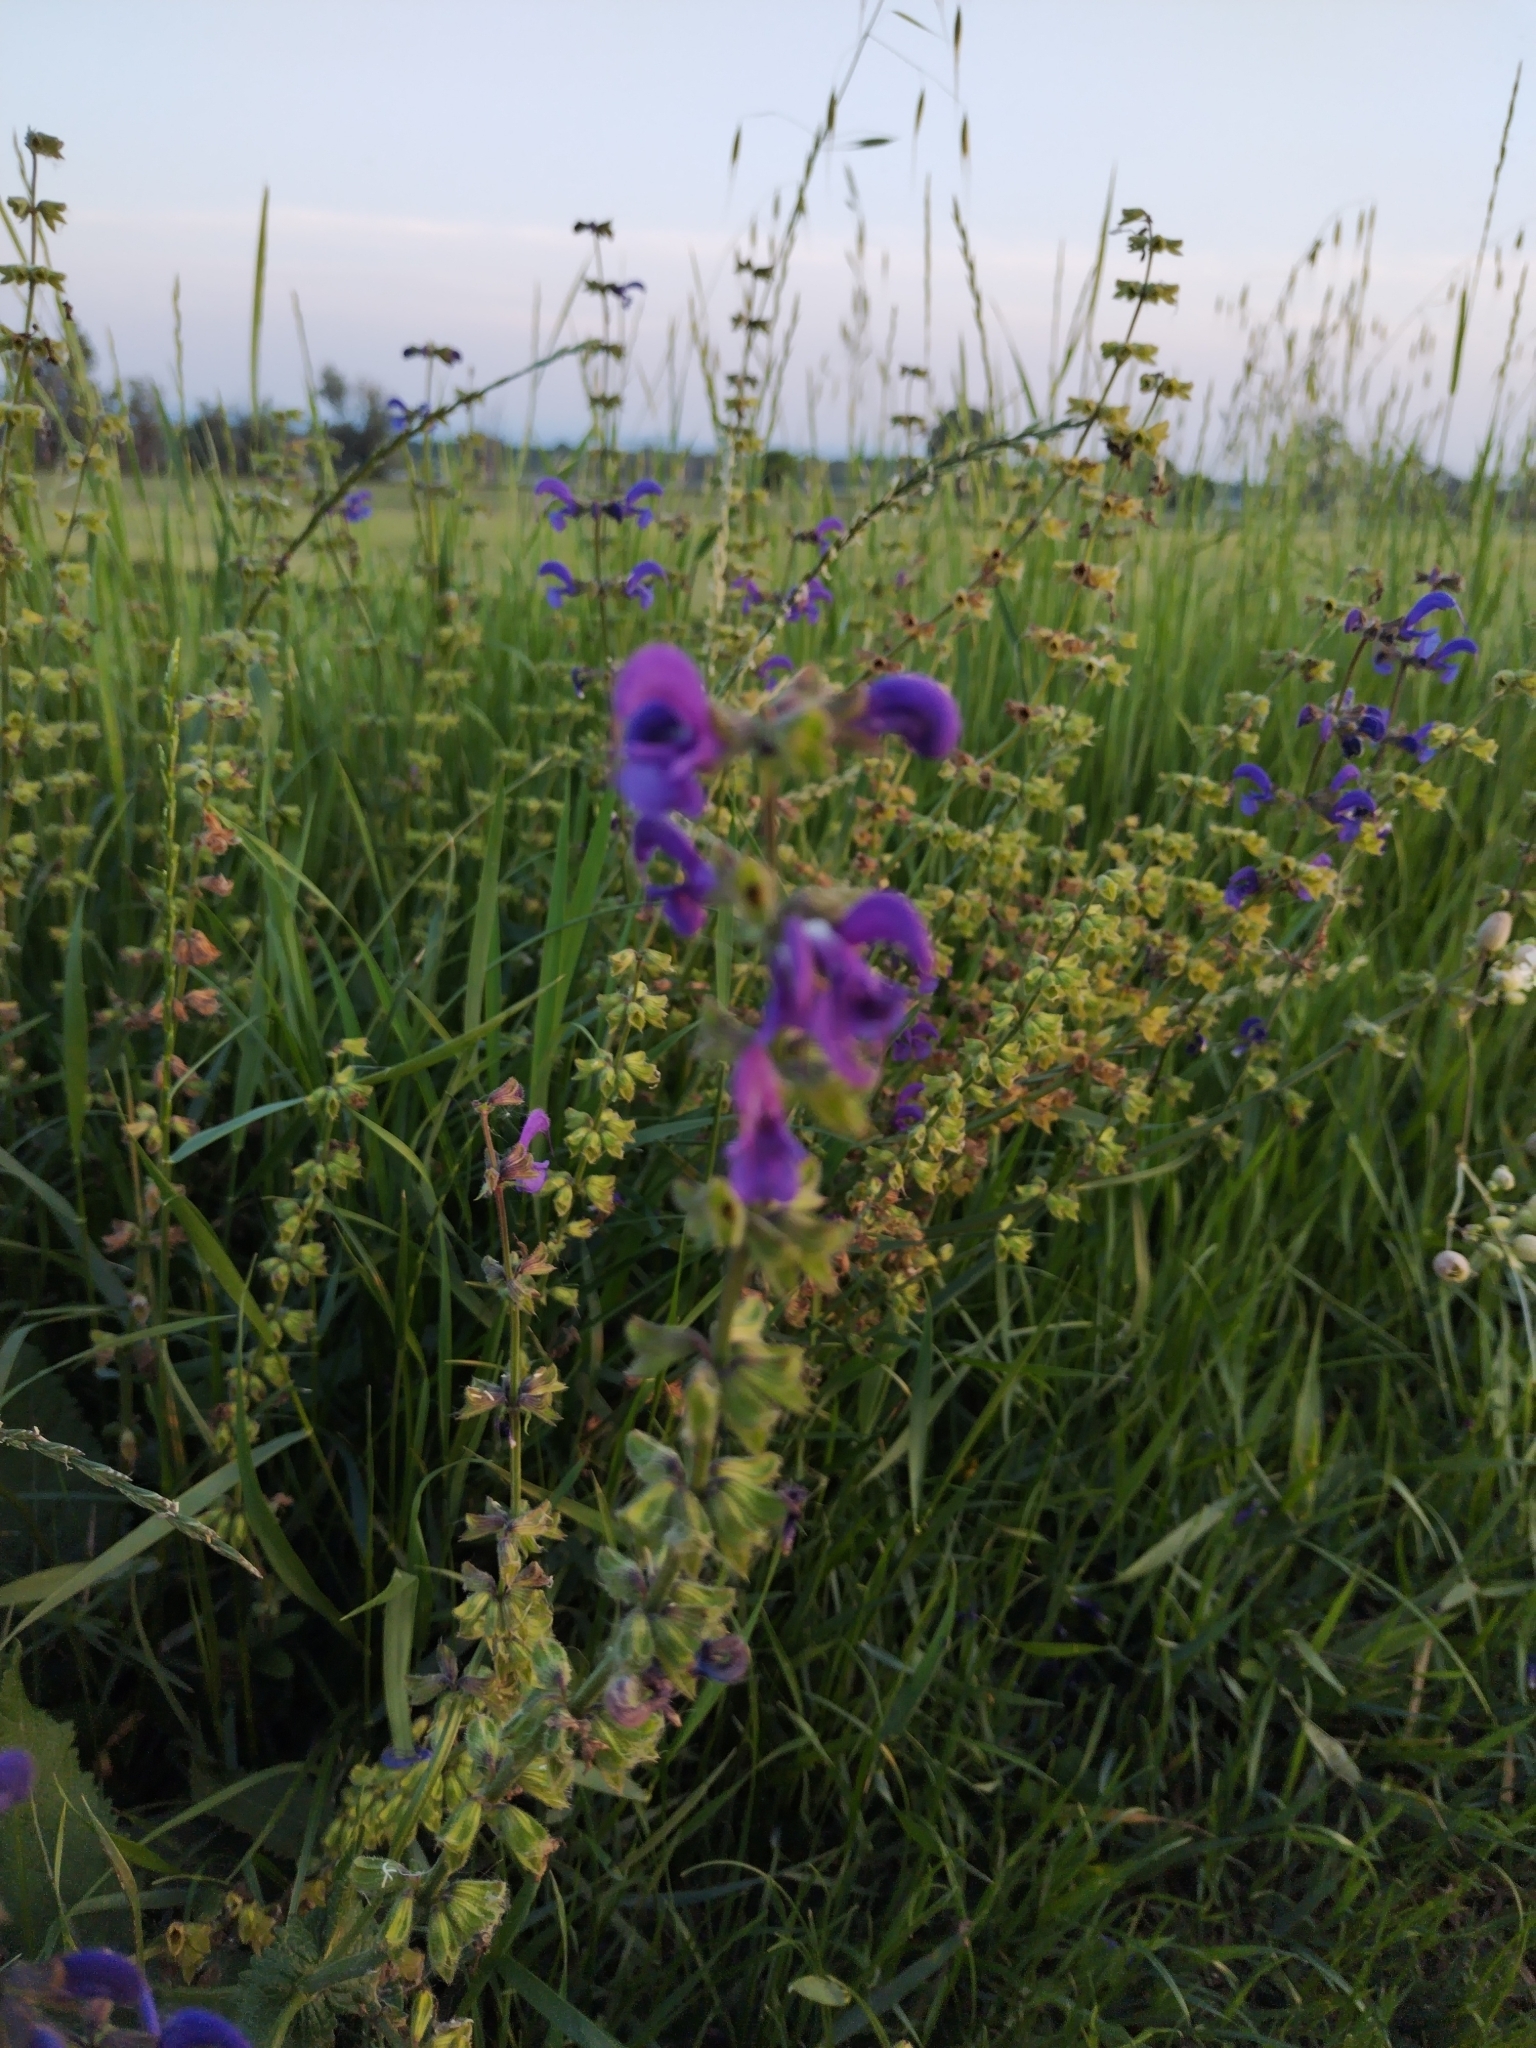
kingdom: Plantae
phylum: Tracheophyta
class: Magnoliopsida
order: Lamiales
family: Lamiaceae
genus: Salvia
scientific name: Salvia pratensis
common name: Meadow sage
